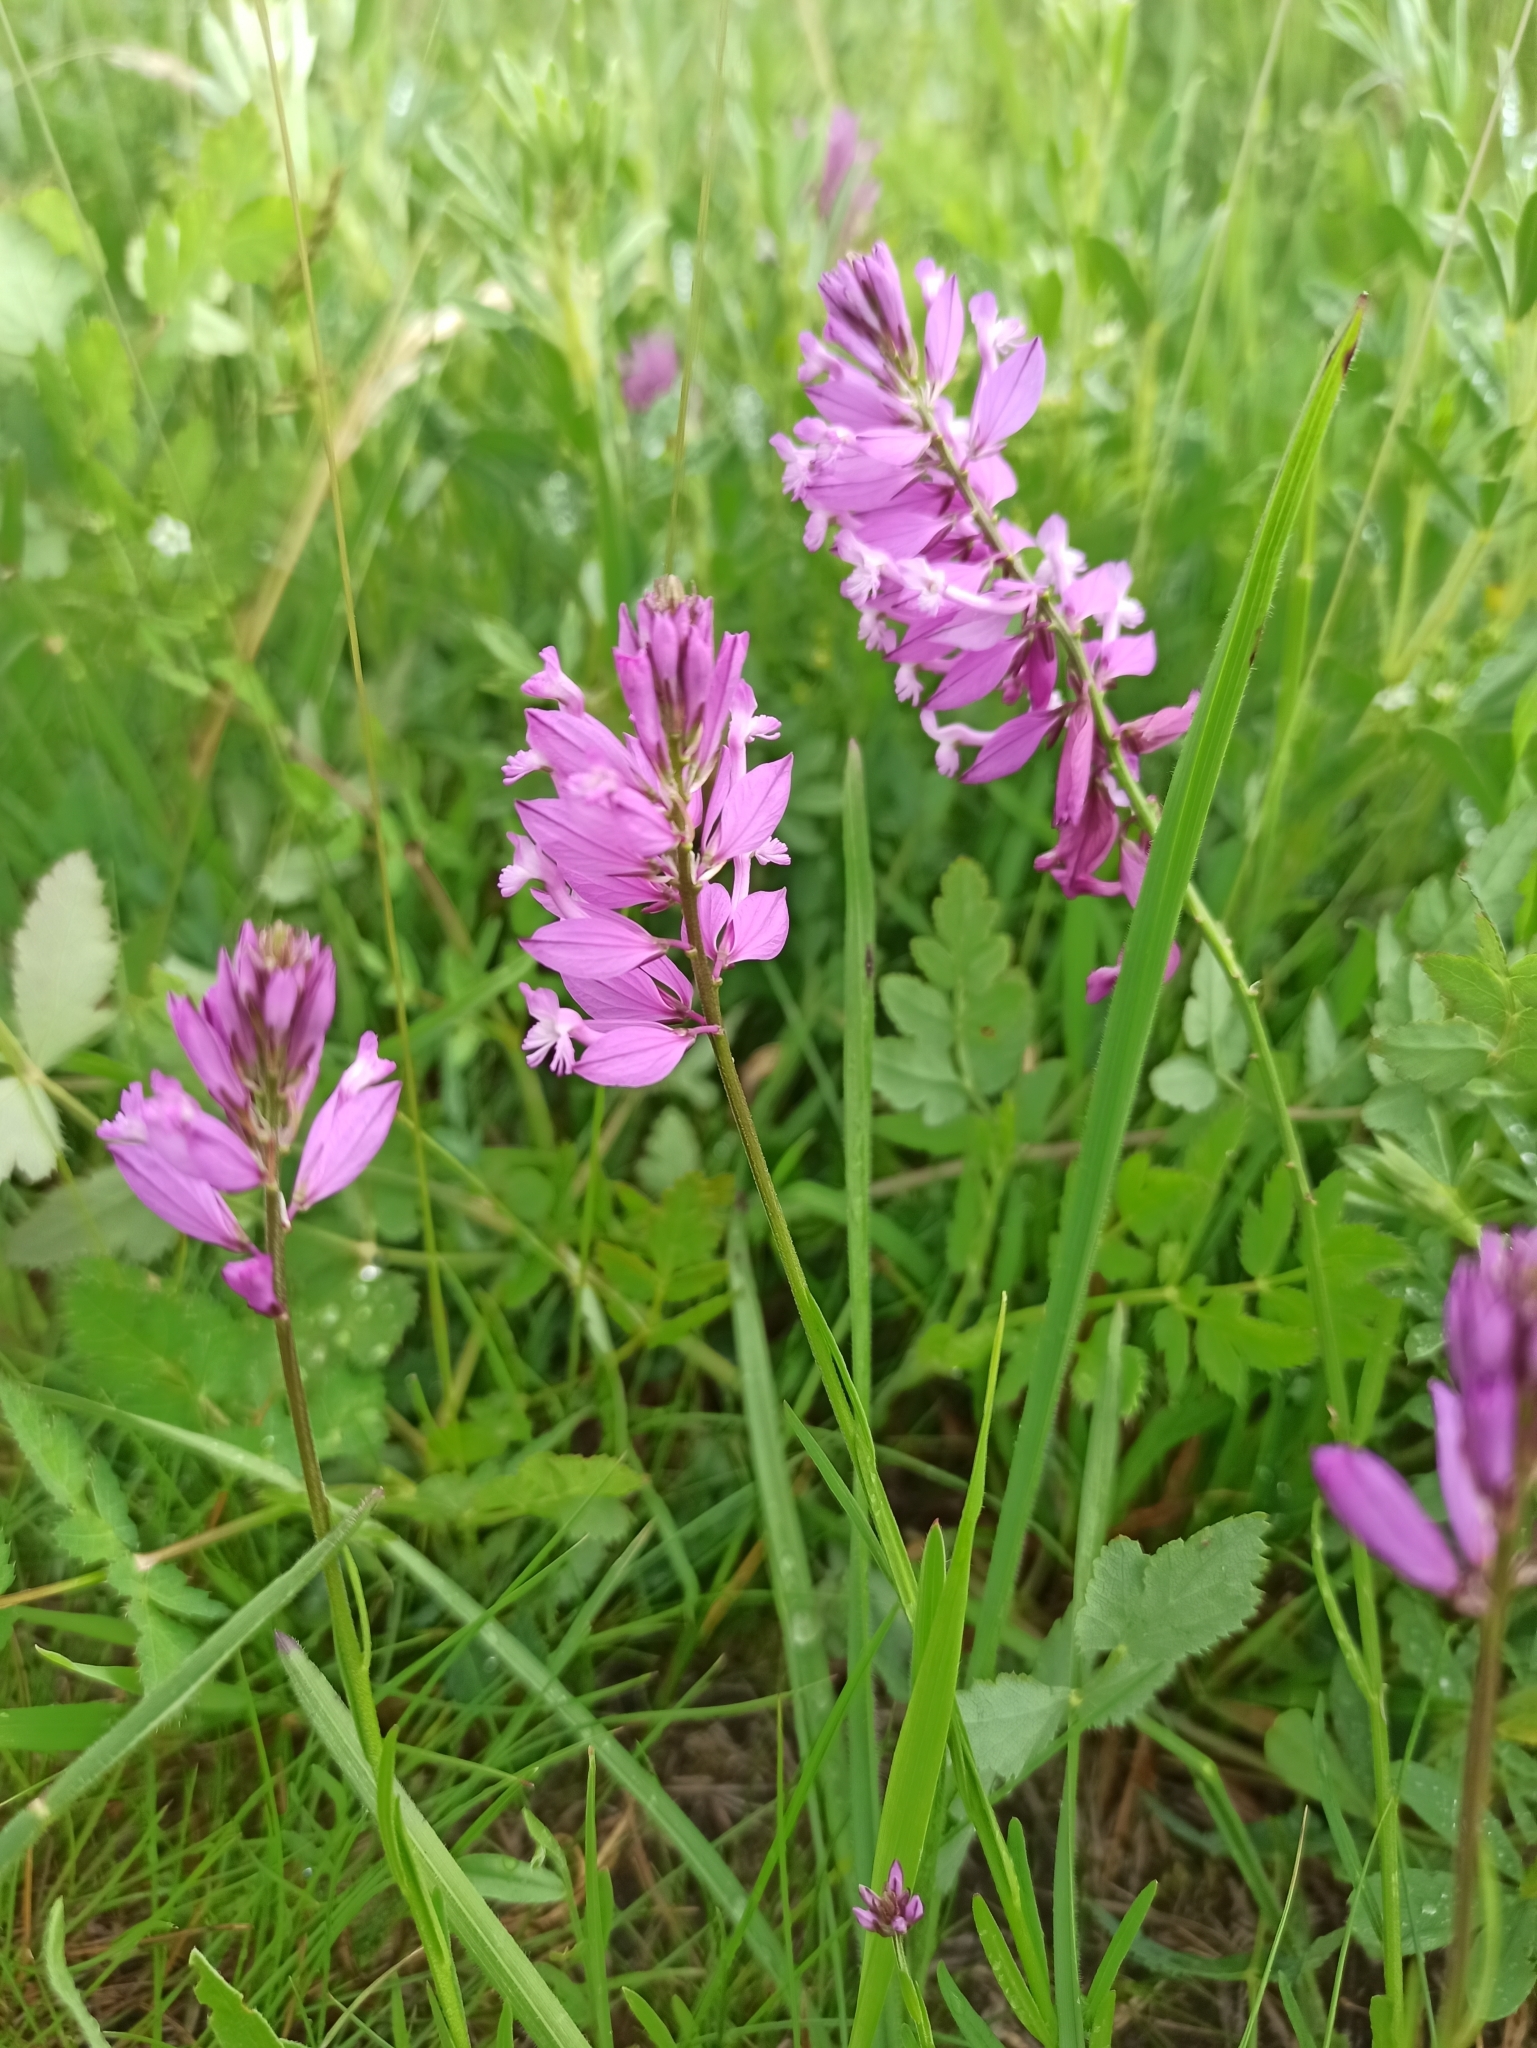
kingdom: Plantae
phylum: Tracheophyta
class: Magnoliopsida
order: Fabales
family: Polygalaceae
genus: Polygala
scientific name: Polygala major
